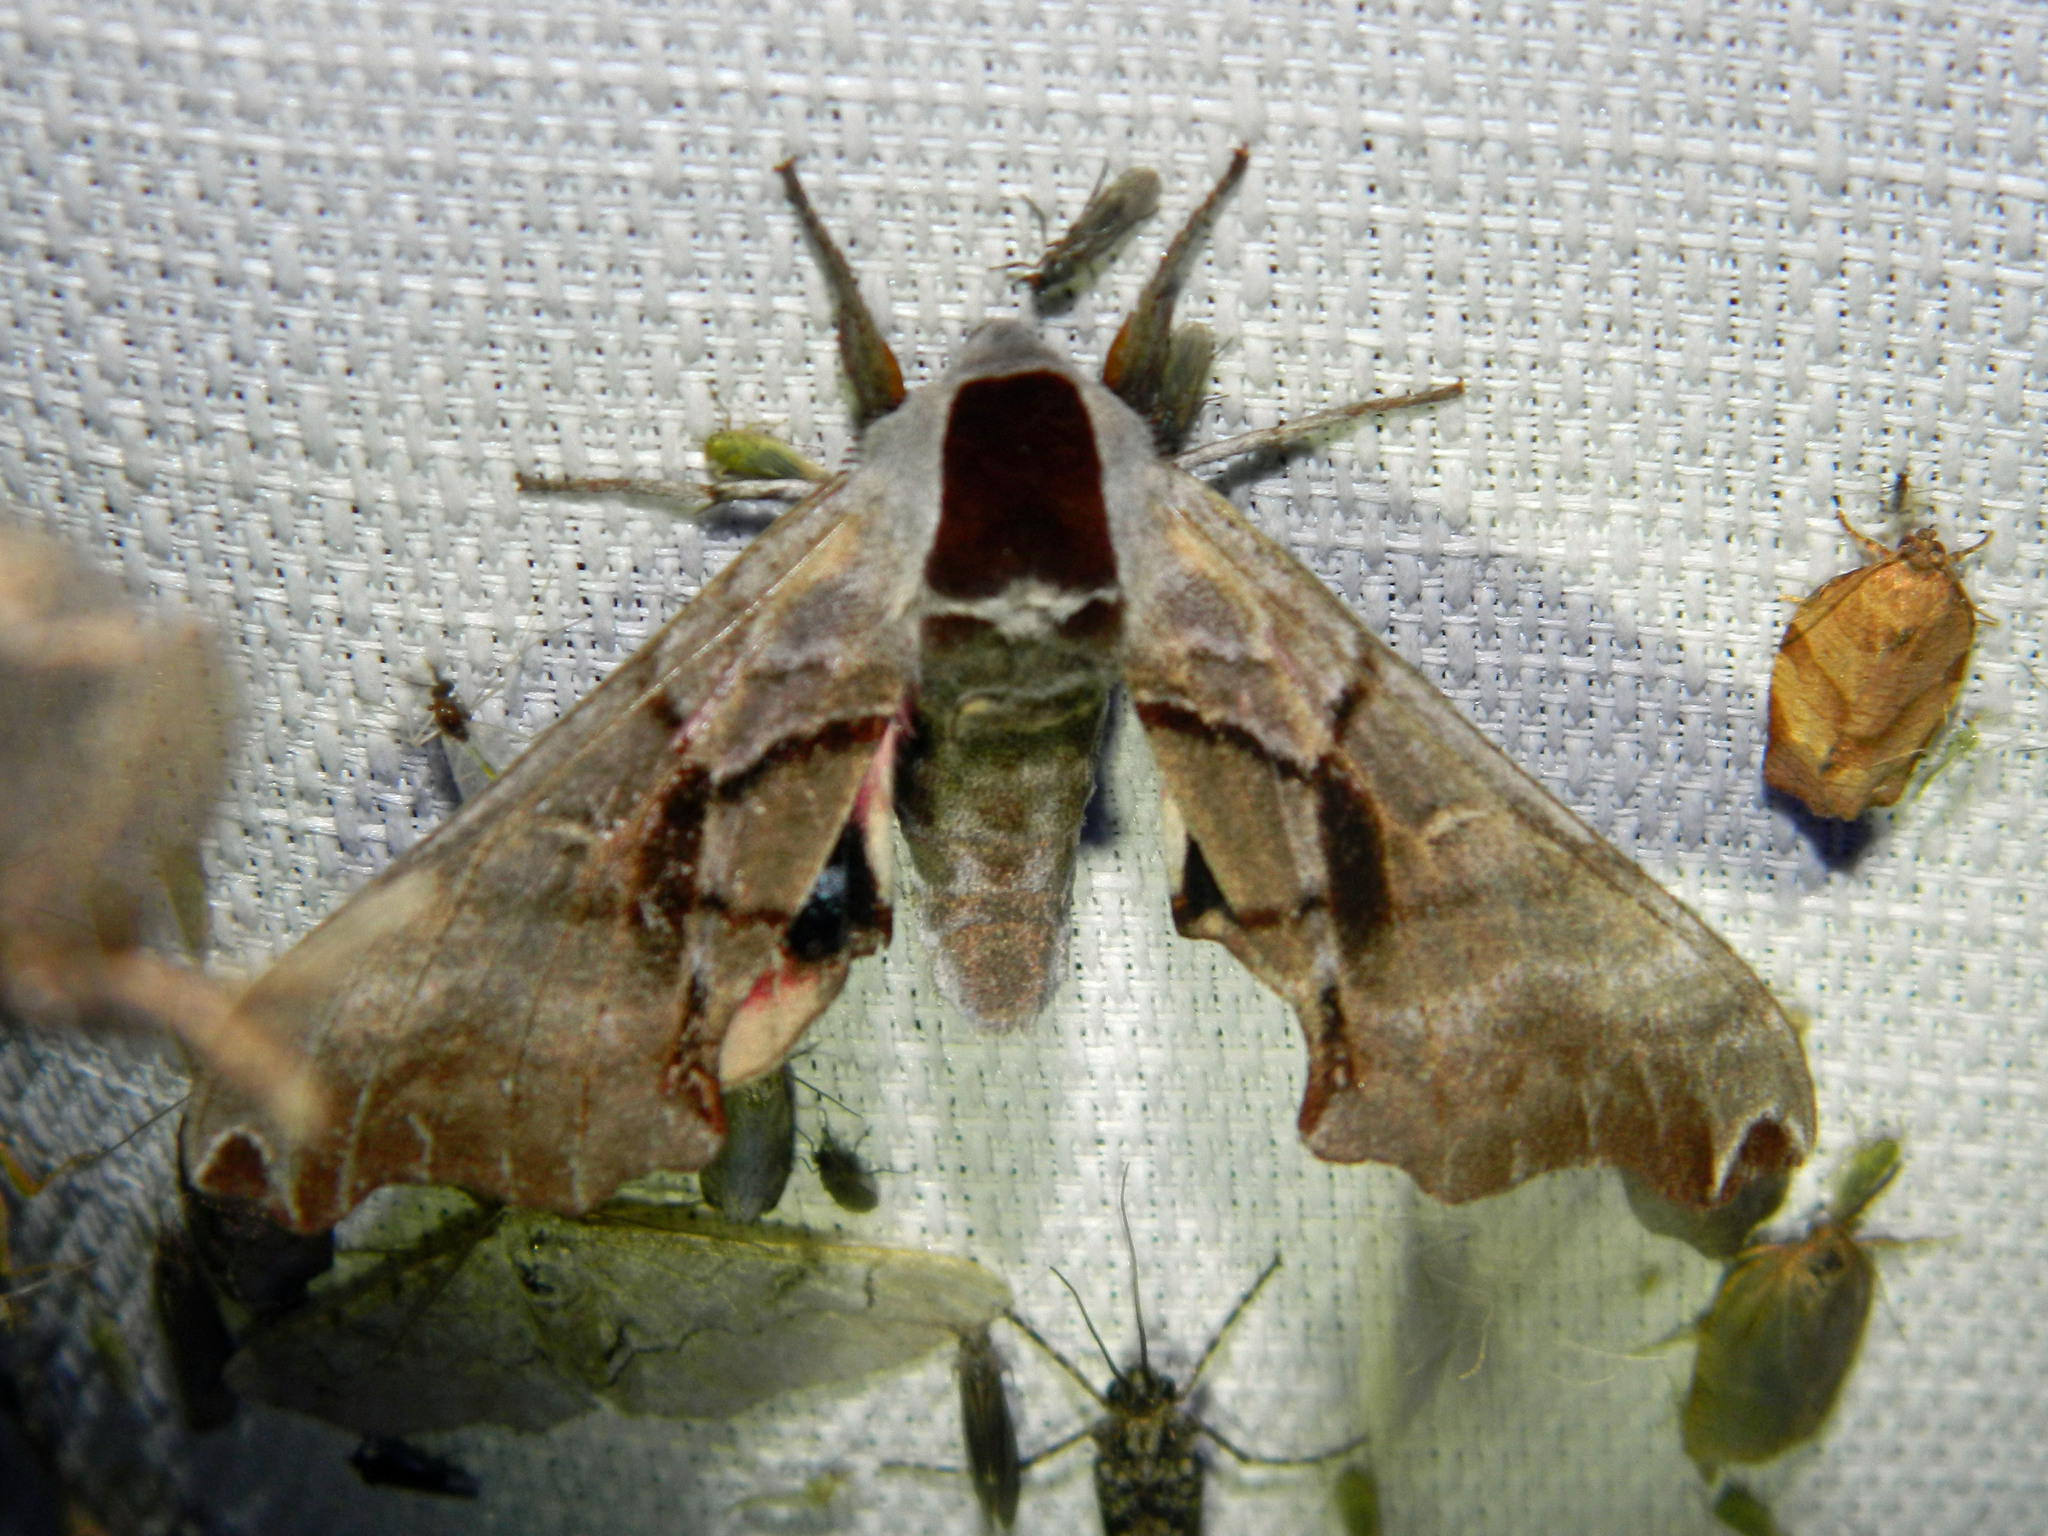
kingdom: Animalia
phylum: Arthropoda
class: Insecta
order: Lepidoptera
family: Sphingidae
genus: Smerinthus
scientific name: Smerinthus jamaicensis
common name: Twin spotted sphinx
